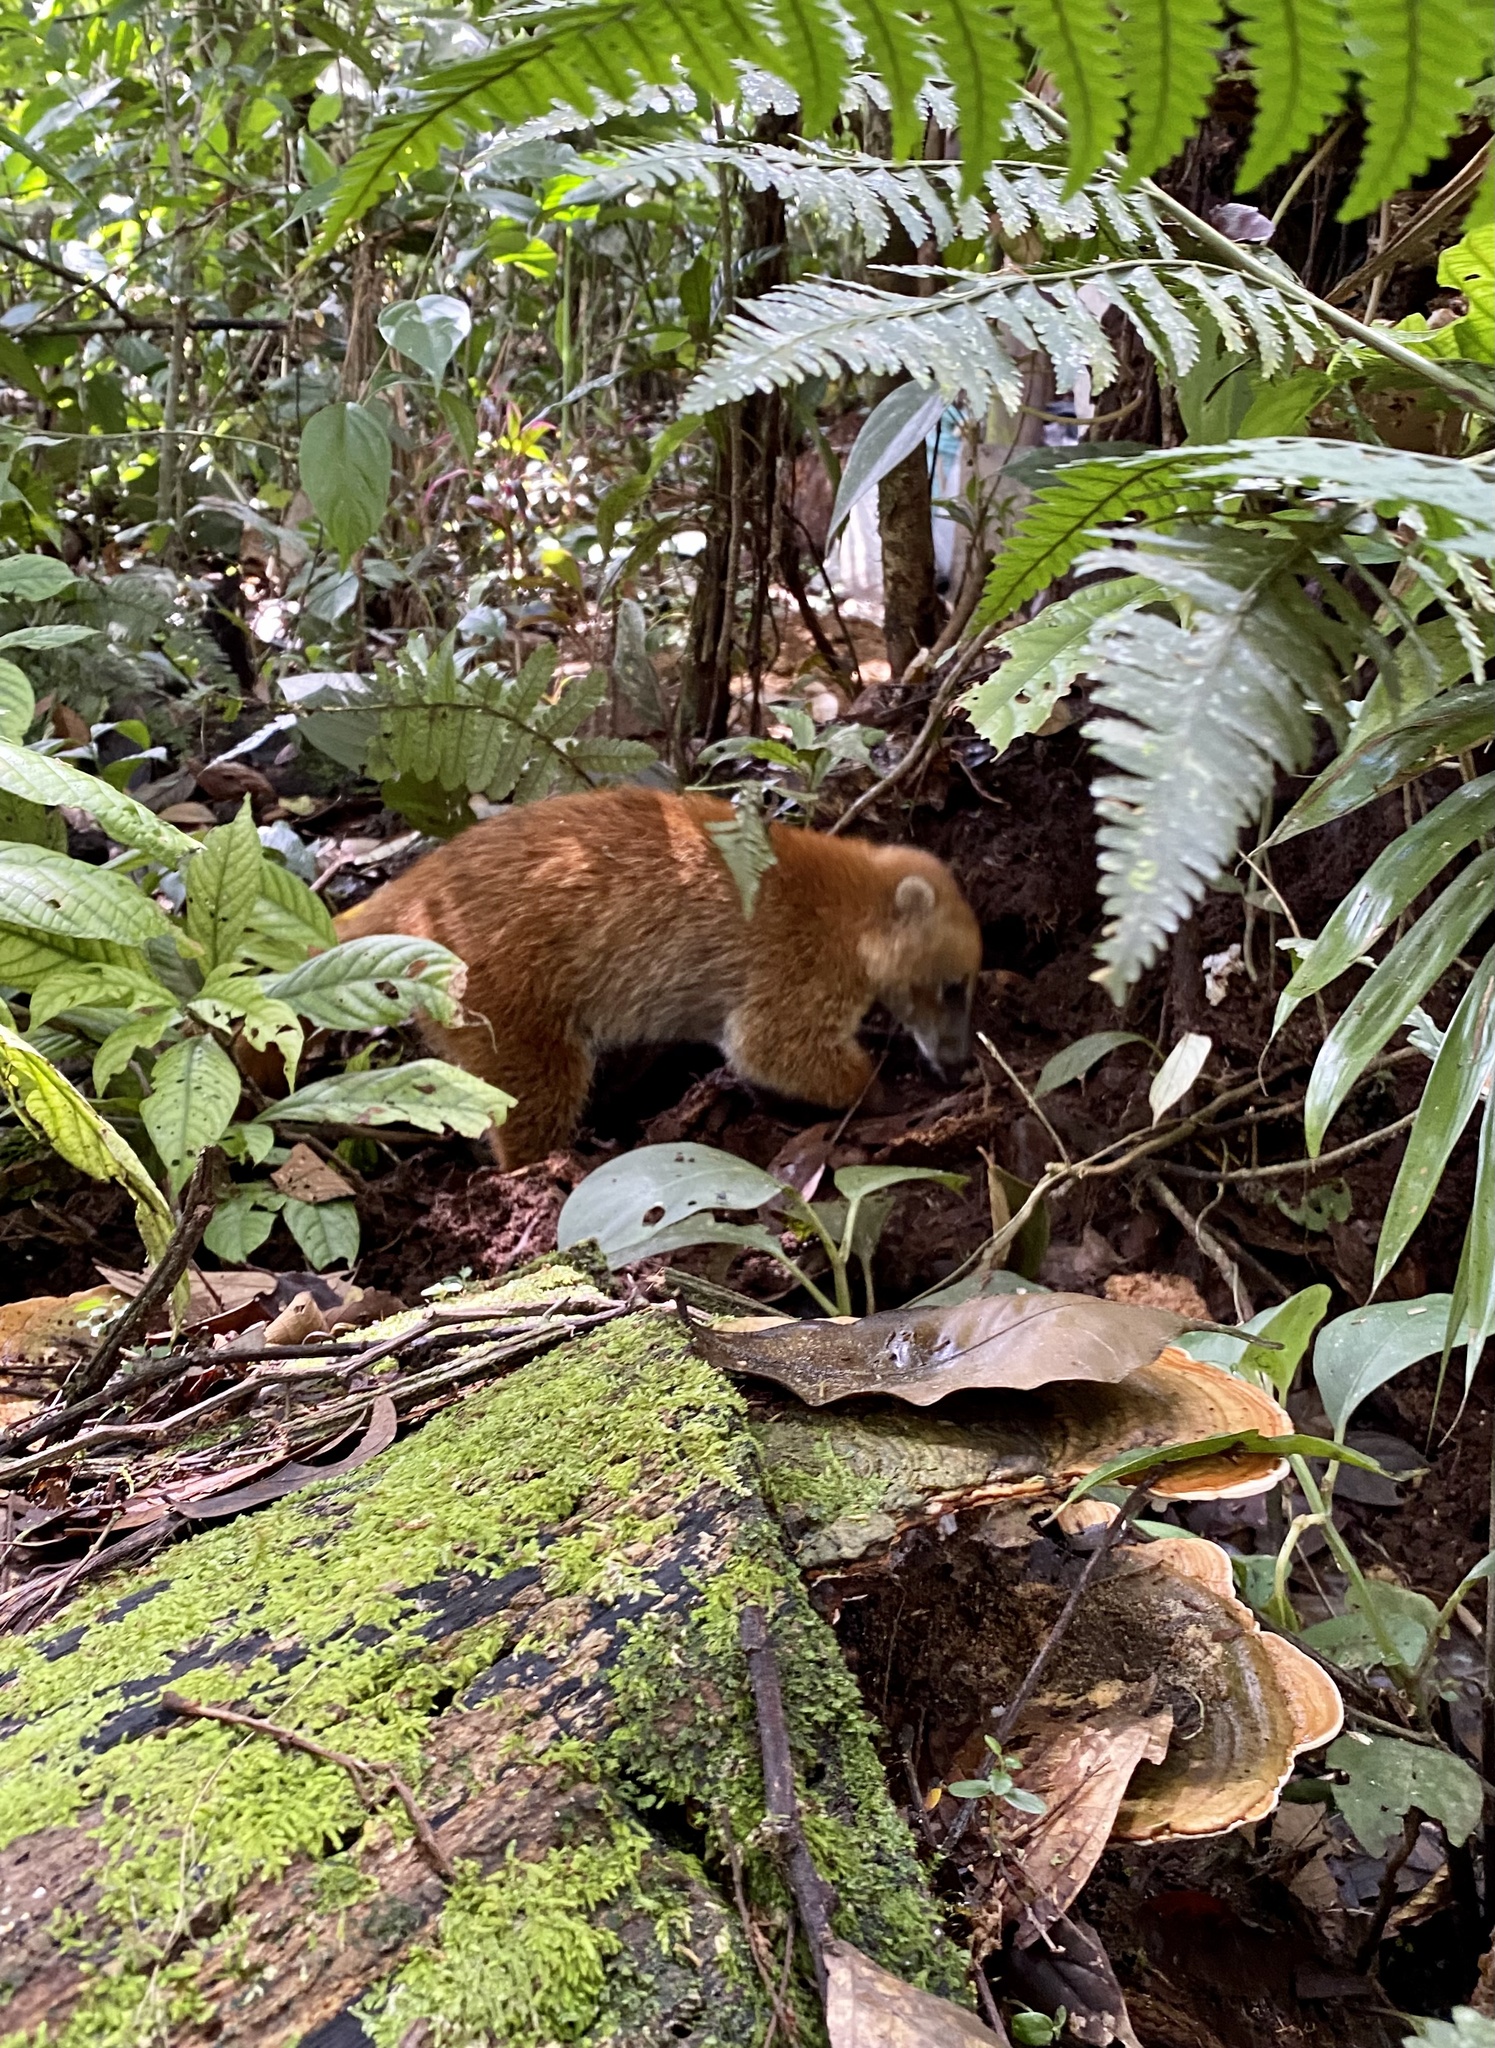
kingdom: Animalia
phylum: Chordata
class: Mammalia
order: Carnivora
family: Procyonidae
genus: Nasua
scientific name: Nasua nasua
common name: South american coati
